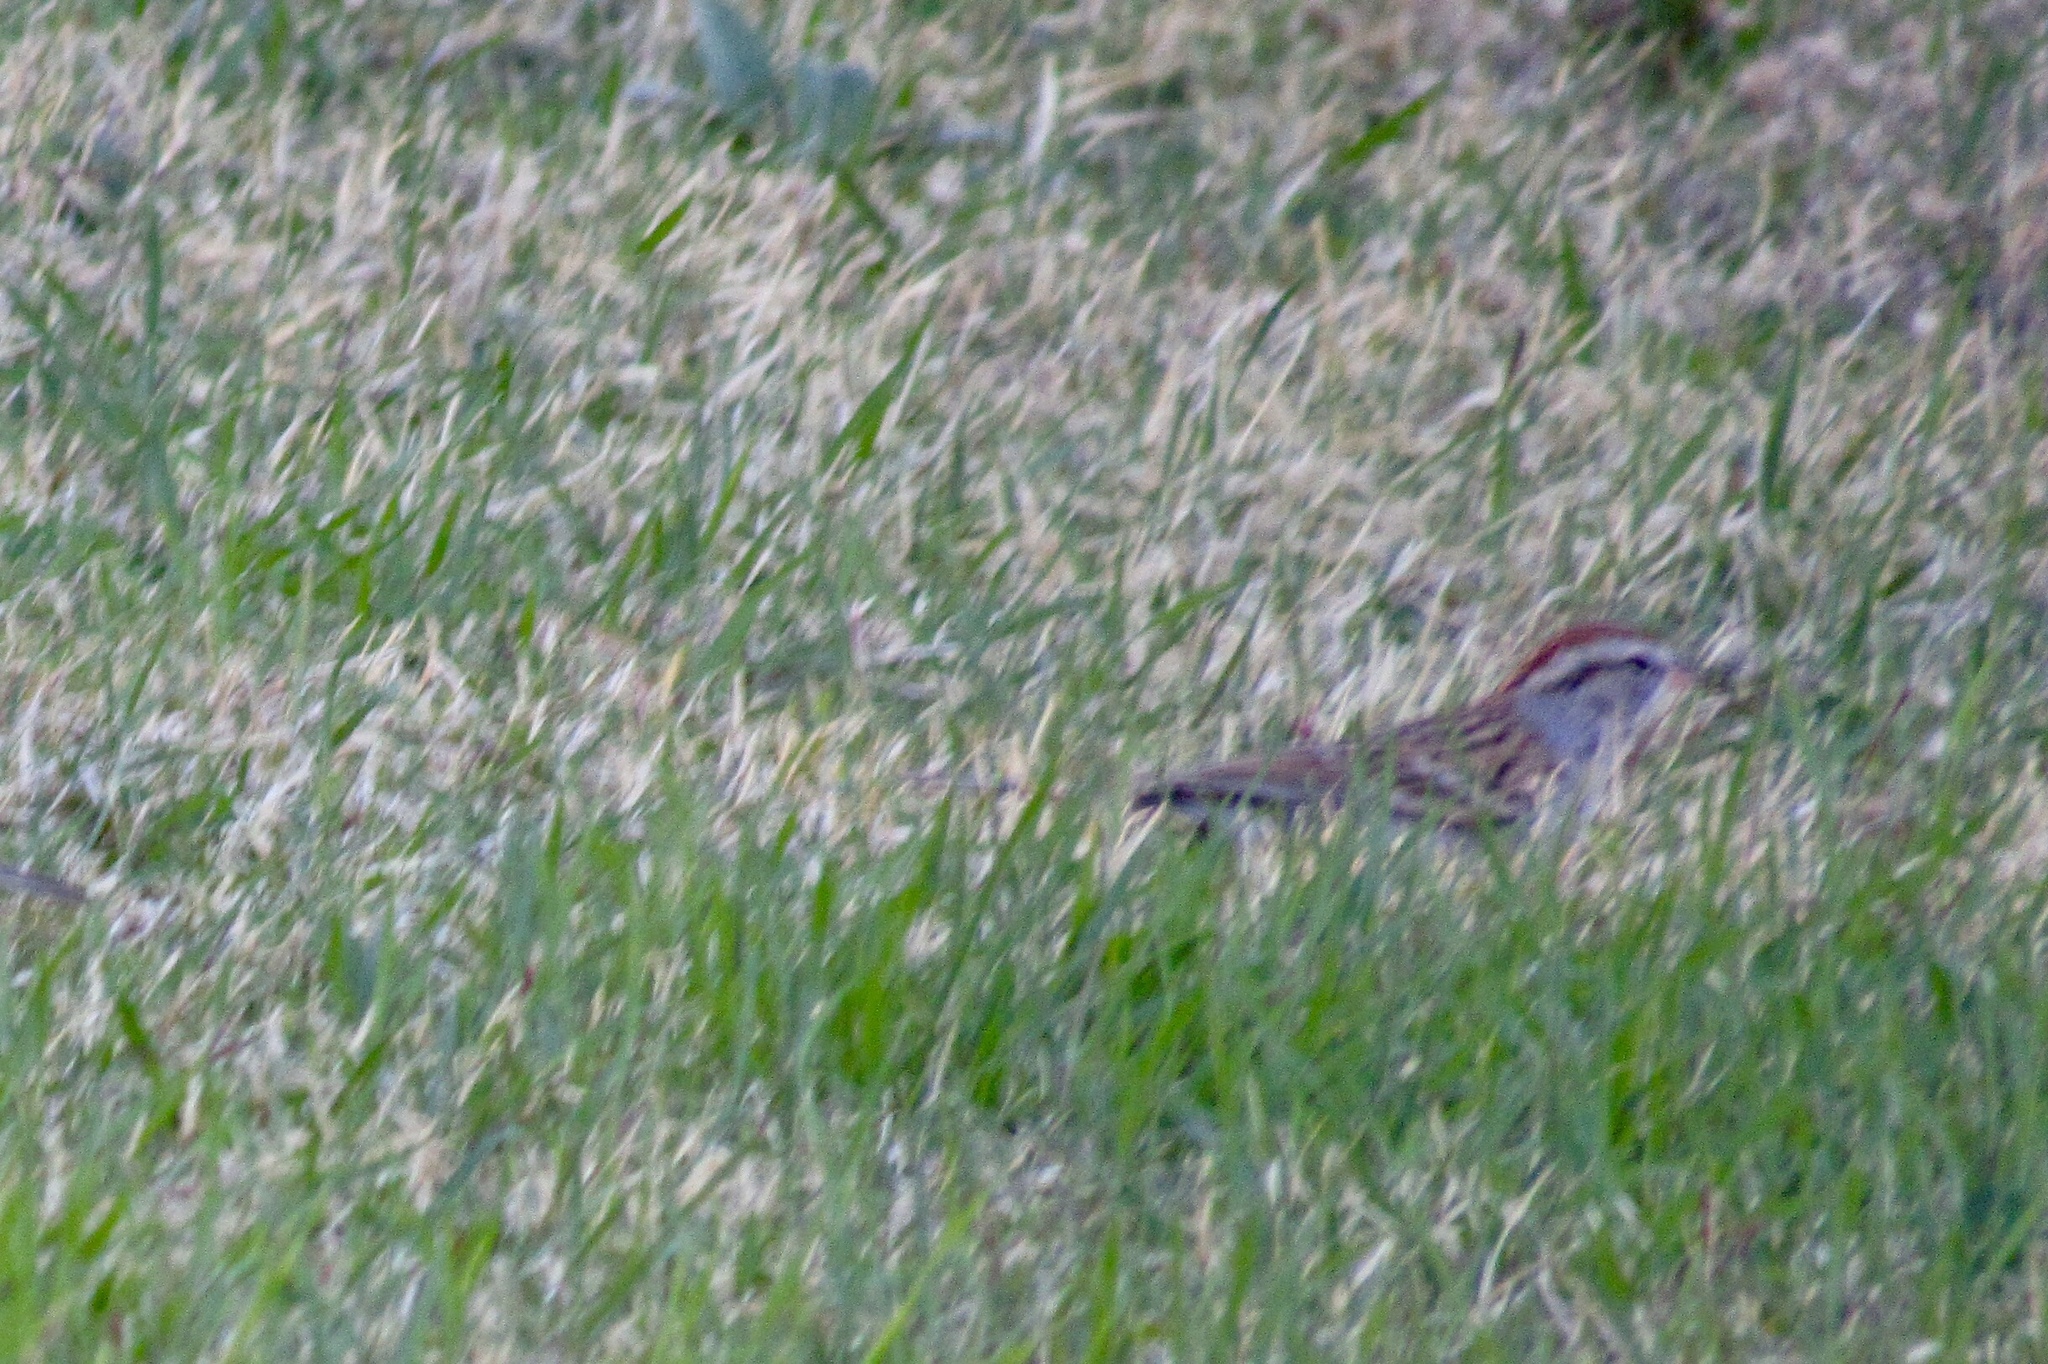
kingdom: Animalia
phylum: Chordata
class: Aves
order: Passeriformes
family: Passerellidae
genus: Spizella
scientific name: Spizella passerina
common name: Chipping sparrow
